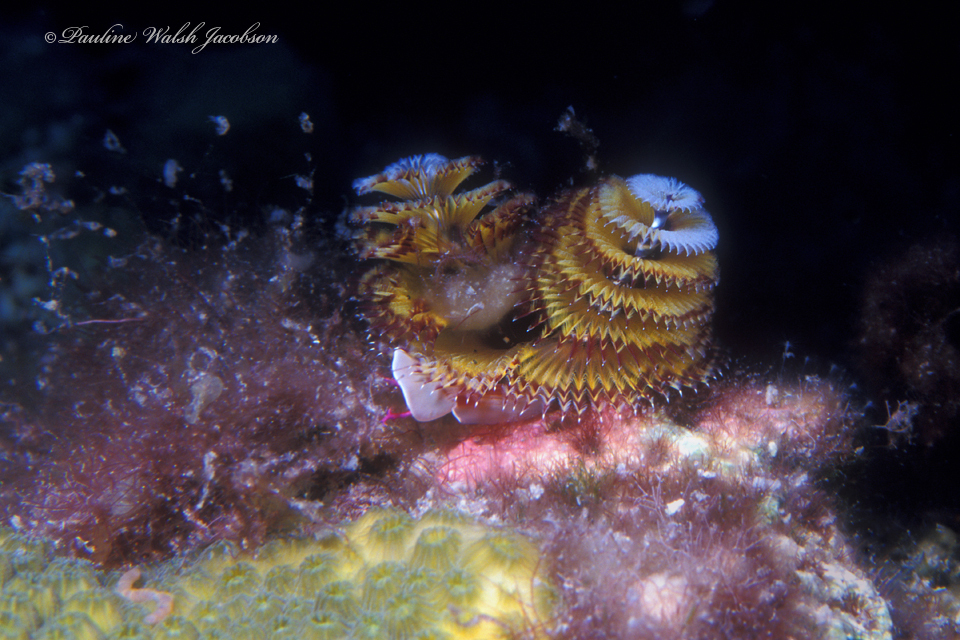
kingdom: Animalia
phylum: Annelida
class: Polychaeta
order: Sabellida
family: Serpulidae
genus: Spirobranchus
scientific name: Spirobranchus giganteus
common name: Christmas tree worm
